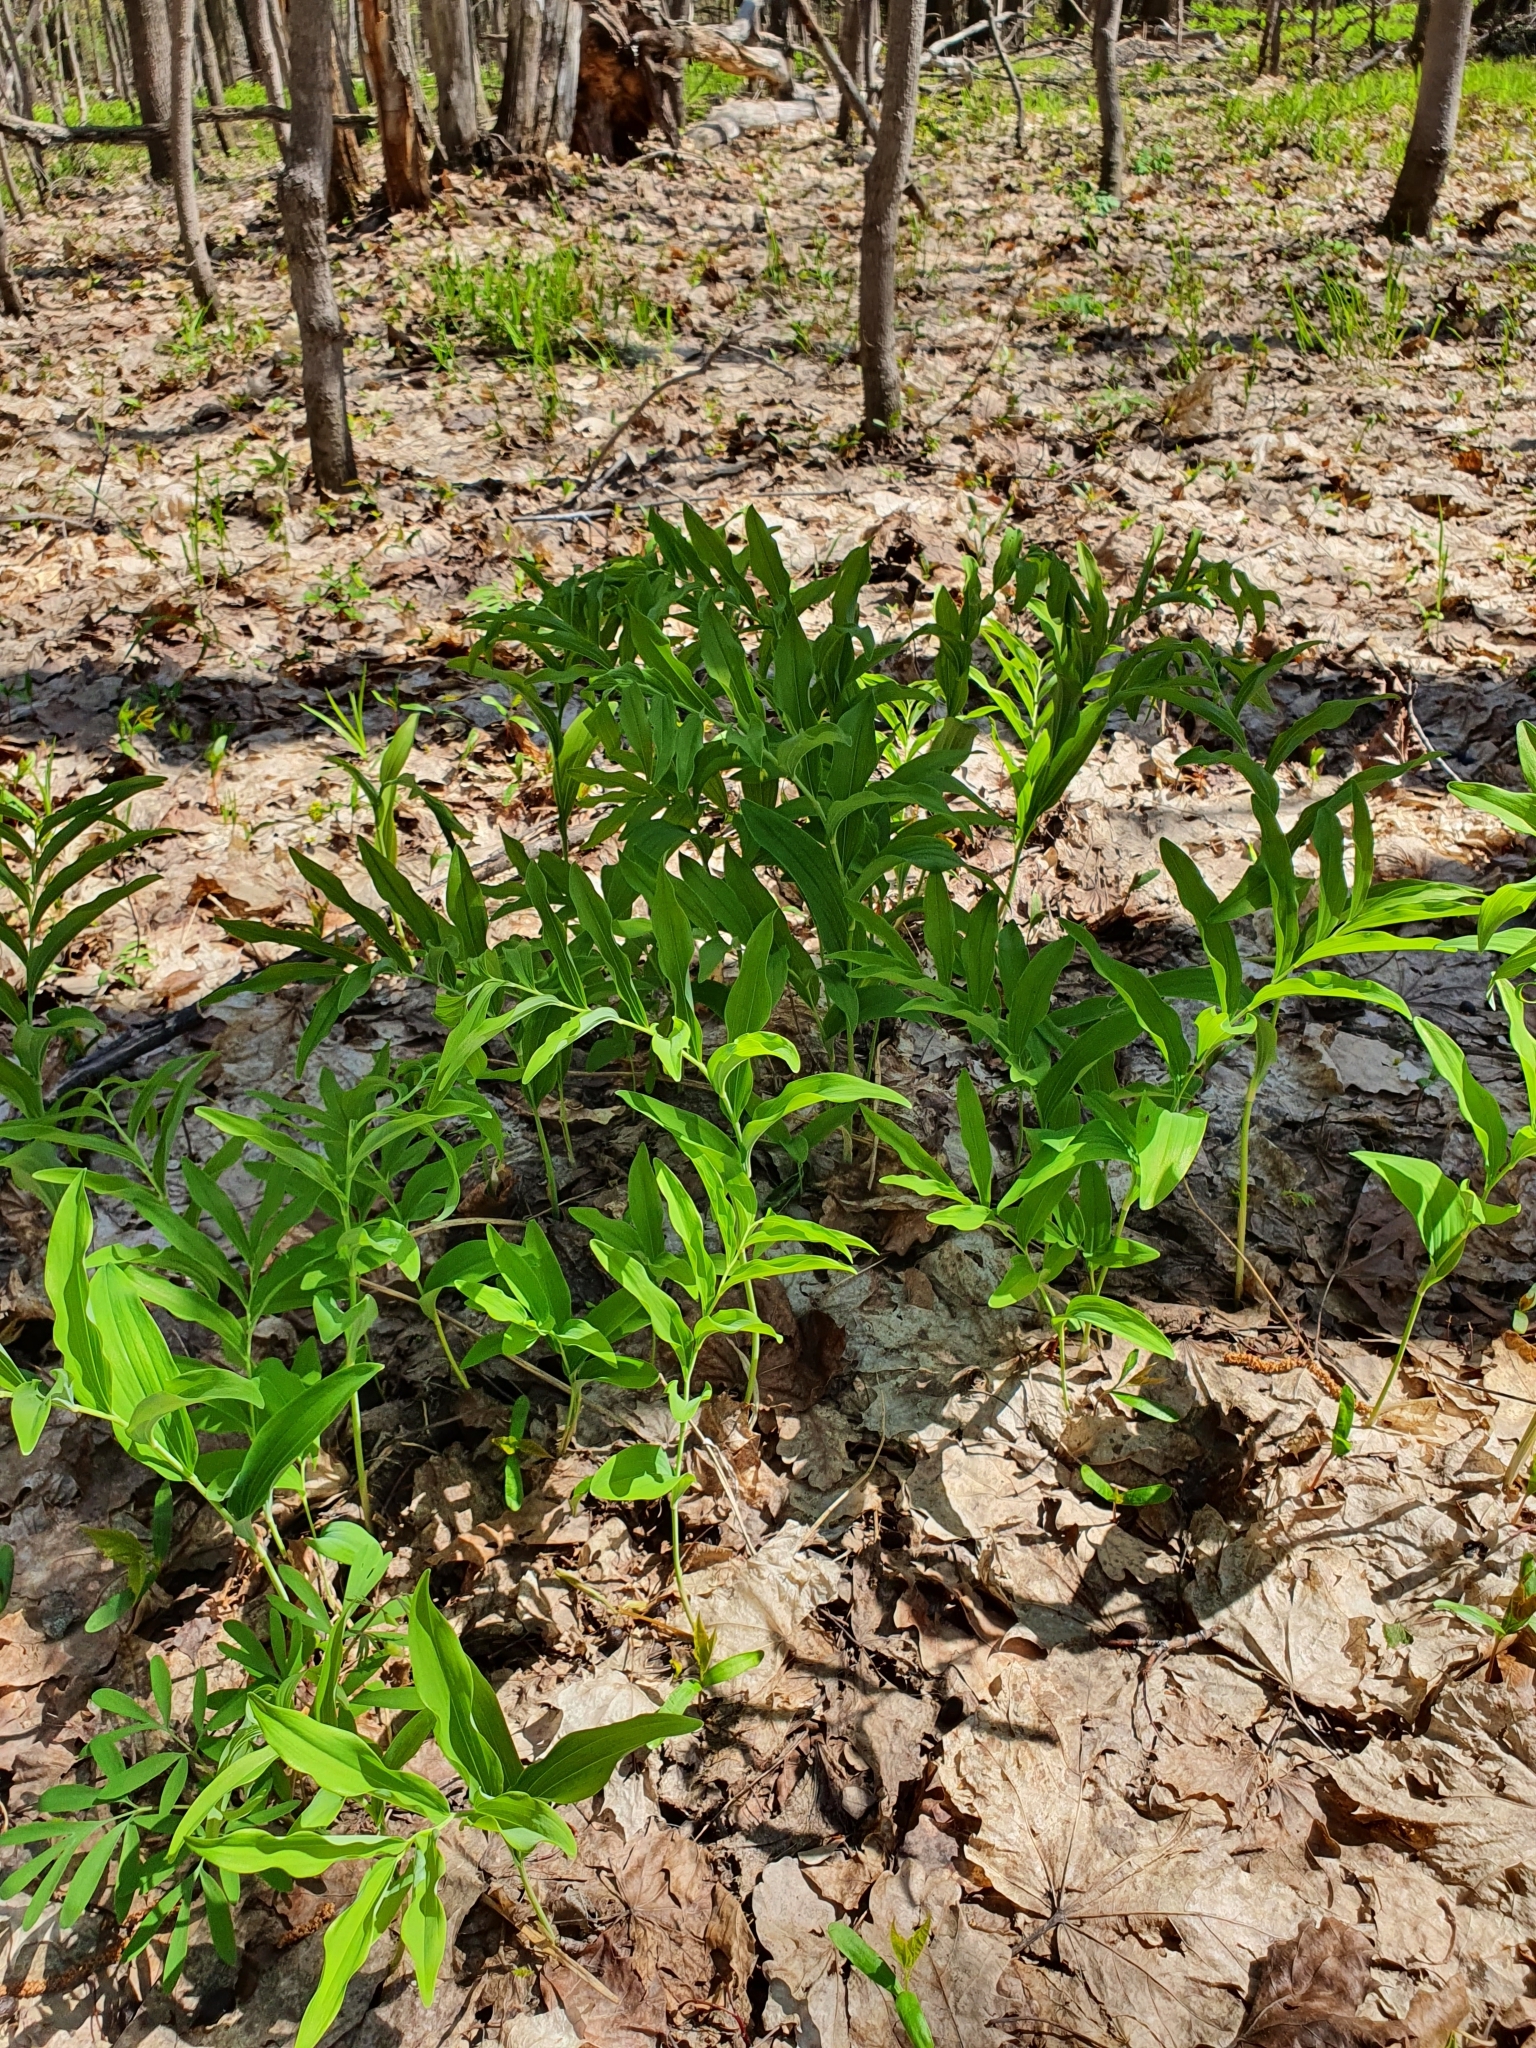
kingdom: Plantae
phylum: Tracheophyta
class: Liliopsida
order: Asparagales
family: Asparagaceae
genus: Polygonatum
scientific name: Polygonatum multiflorum
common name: Solomon's-seal
